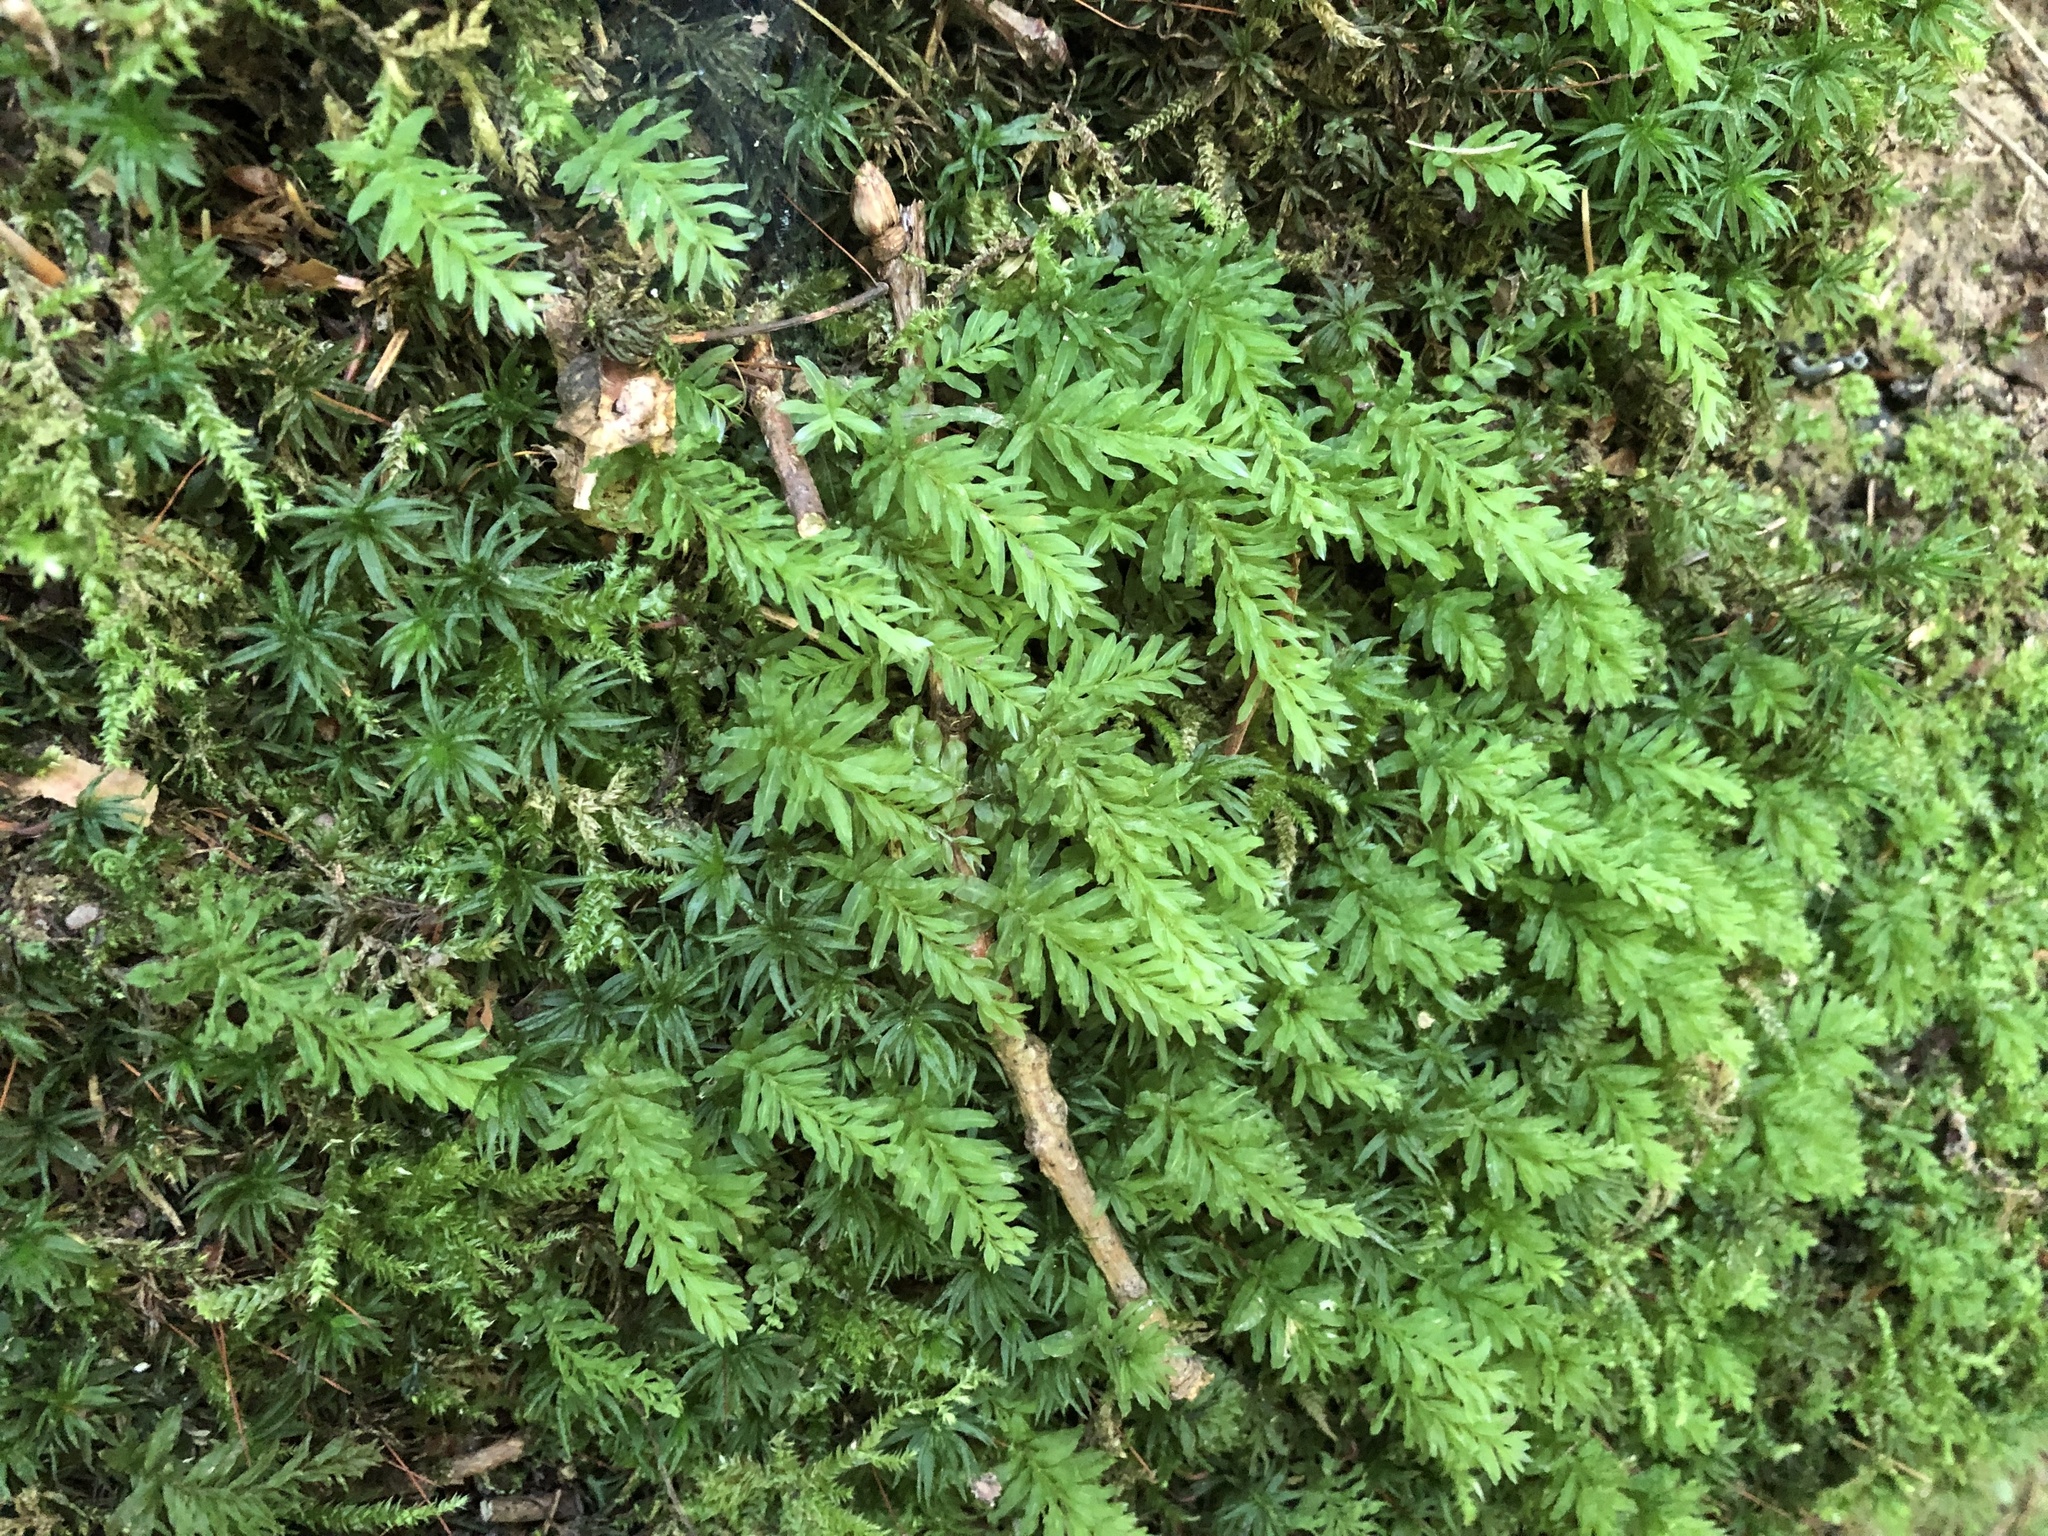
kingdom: Plantae
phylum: Bryophyta
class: Bryopsida
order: Bryales
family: Mniaceae
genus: Plagiomnium
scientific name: Plagiomnium undulatum
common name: Hart's-tongue thyme-moss
